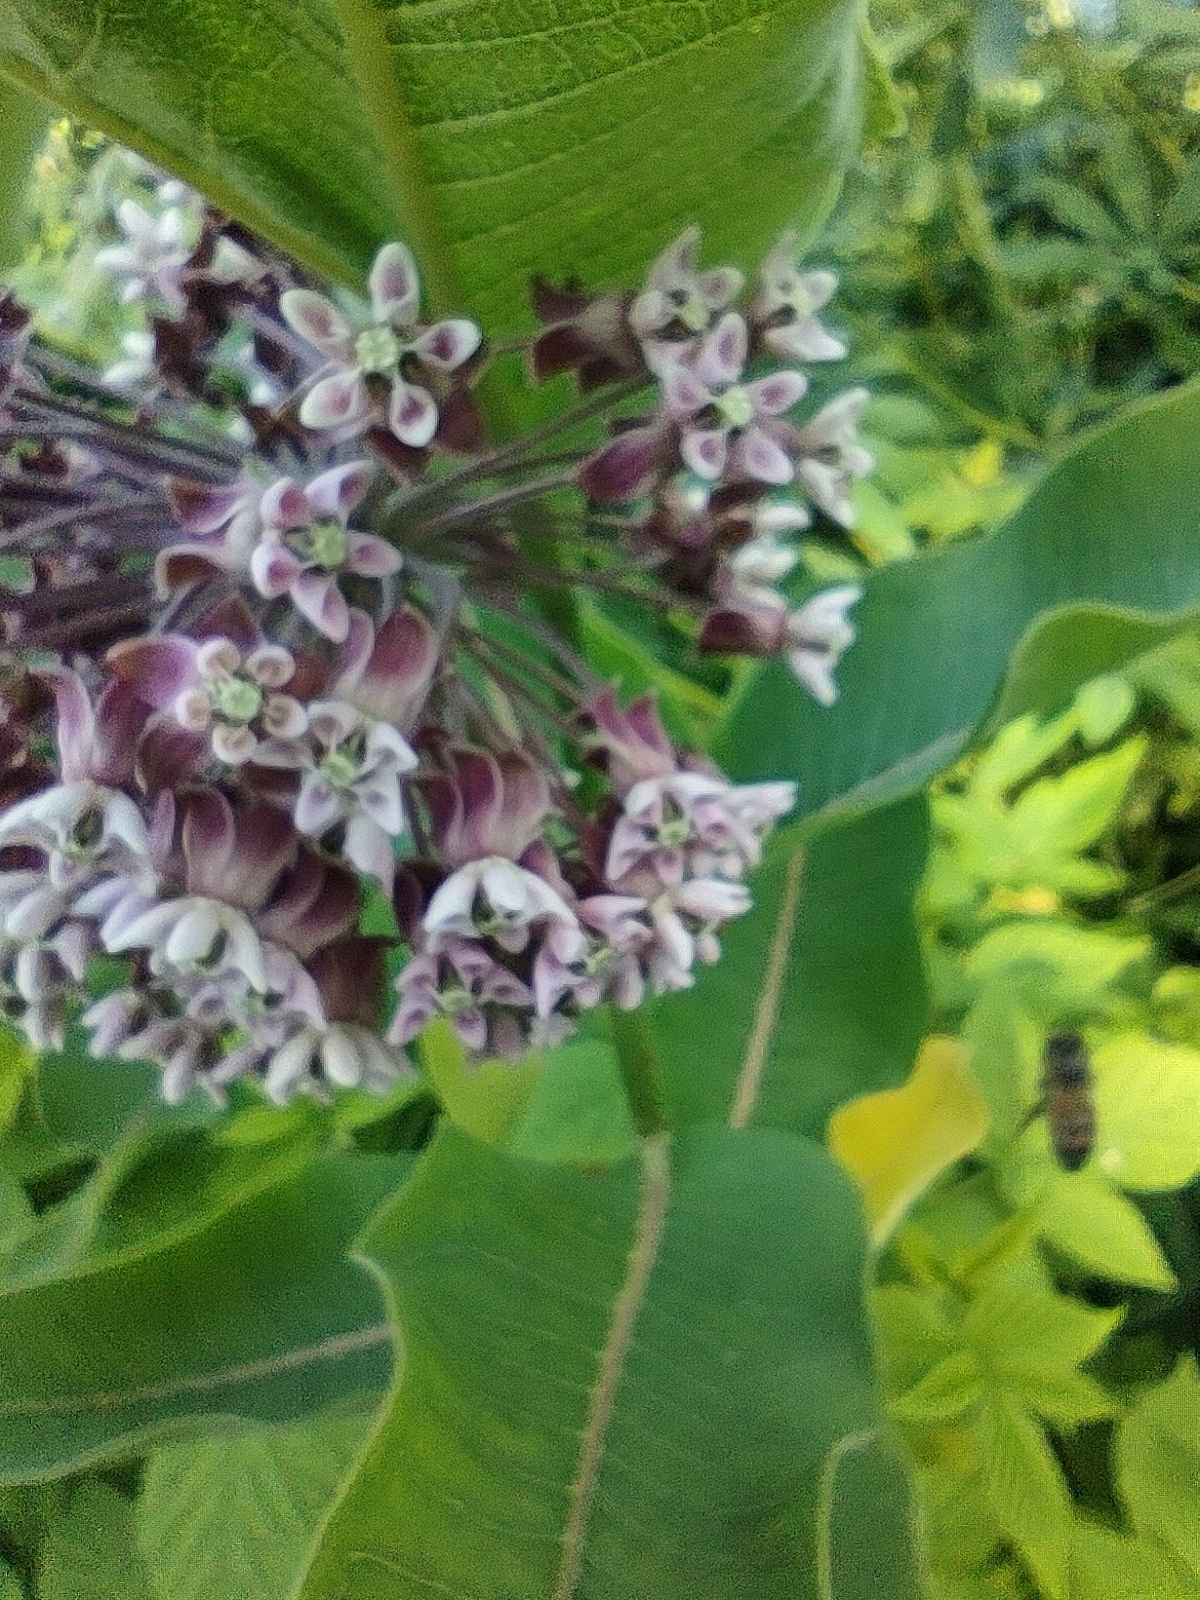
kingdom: Plantae
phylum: Tracheophyta
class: Magnoliopsida
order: Gentianales
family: Apocynaceae
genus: Asclepias
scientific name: Asclepias syriaca
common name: Common milkweed
